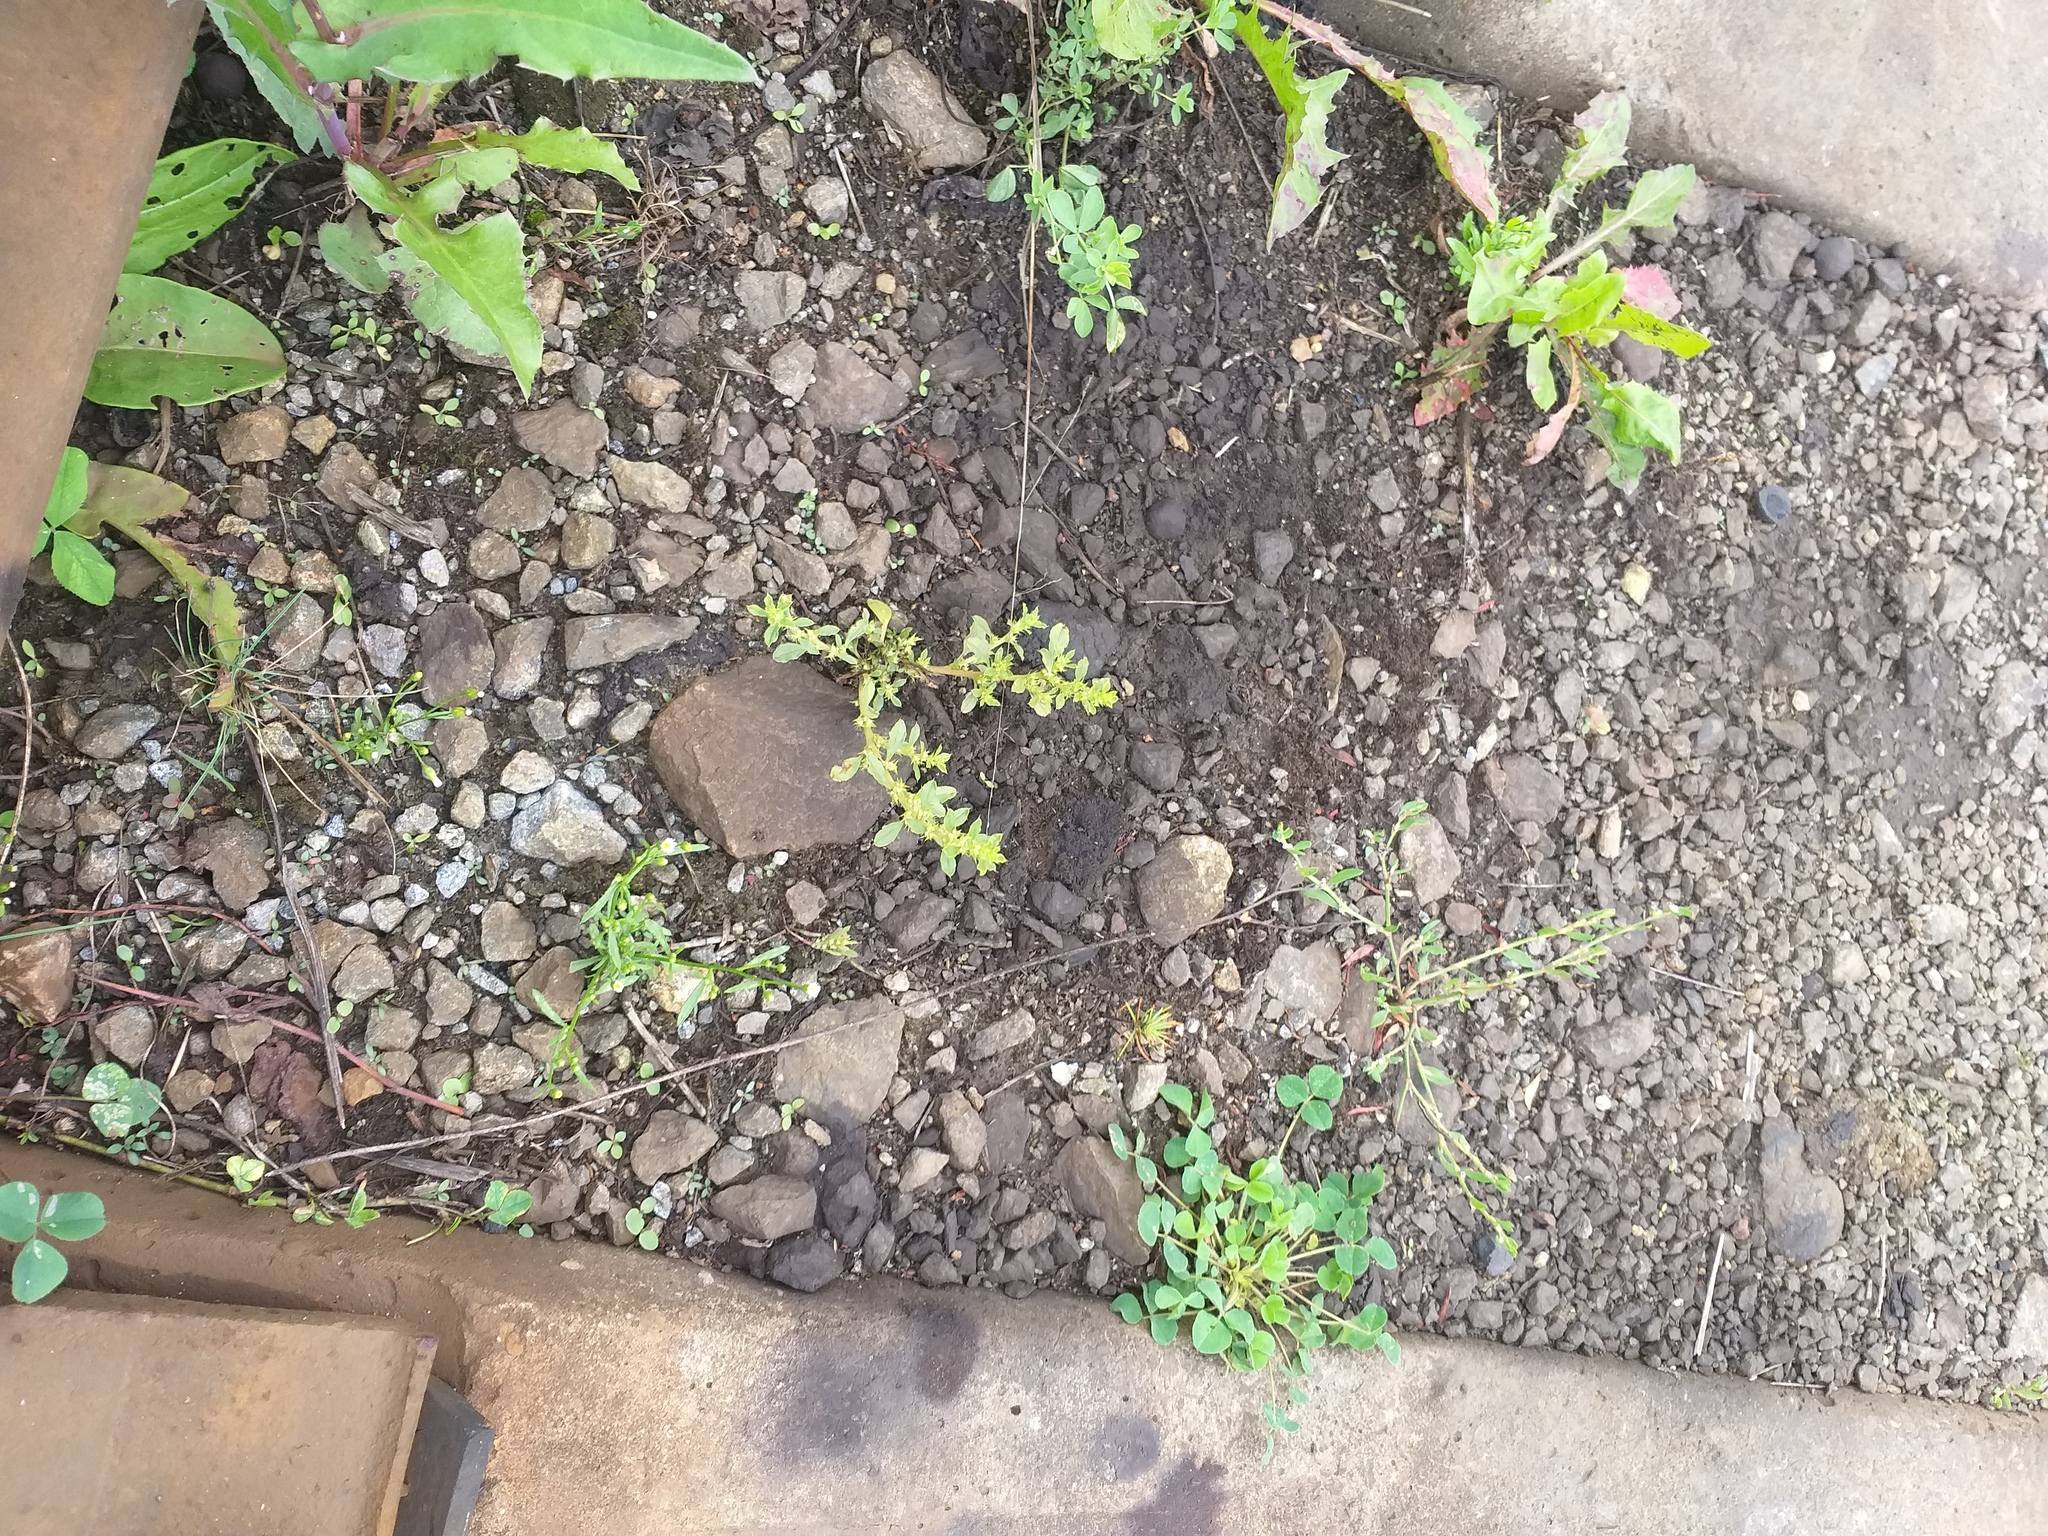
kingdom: Plantae
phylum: Tracheophyta
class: Magnoliopsida
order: Caryophyllales
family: Amaranthaceae
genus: Amaranthus
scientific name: Amaranthus albus
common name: White pigweed
